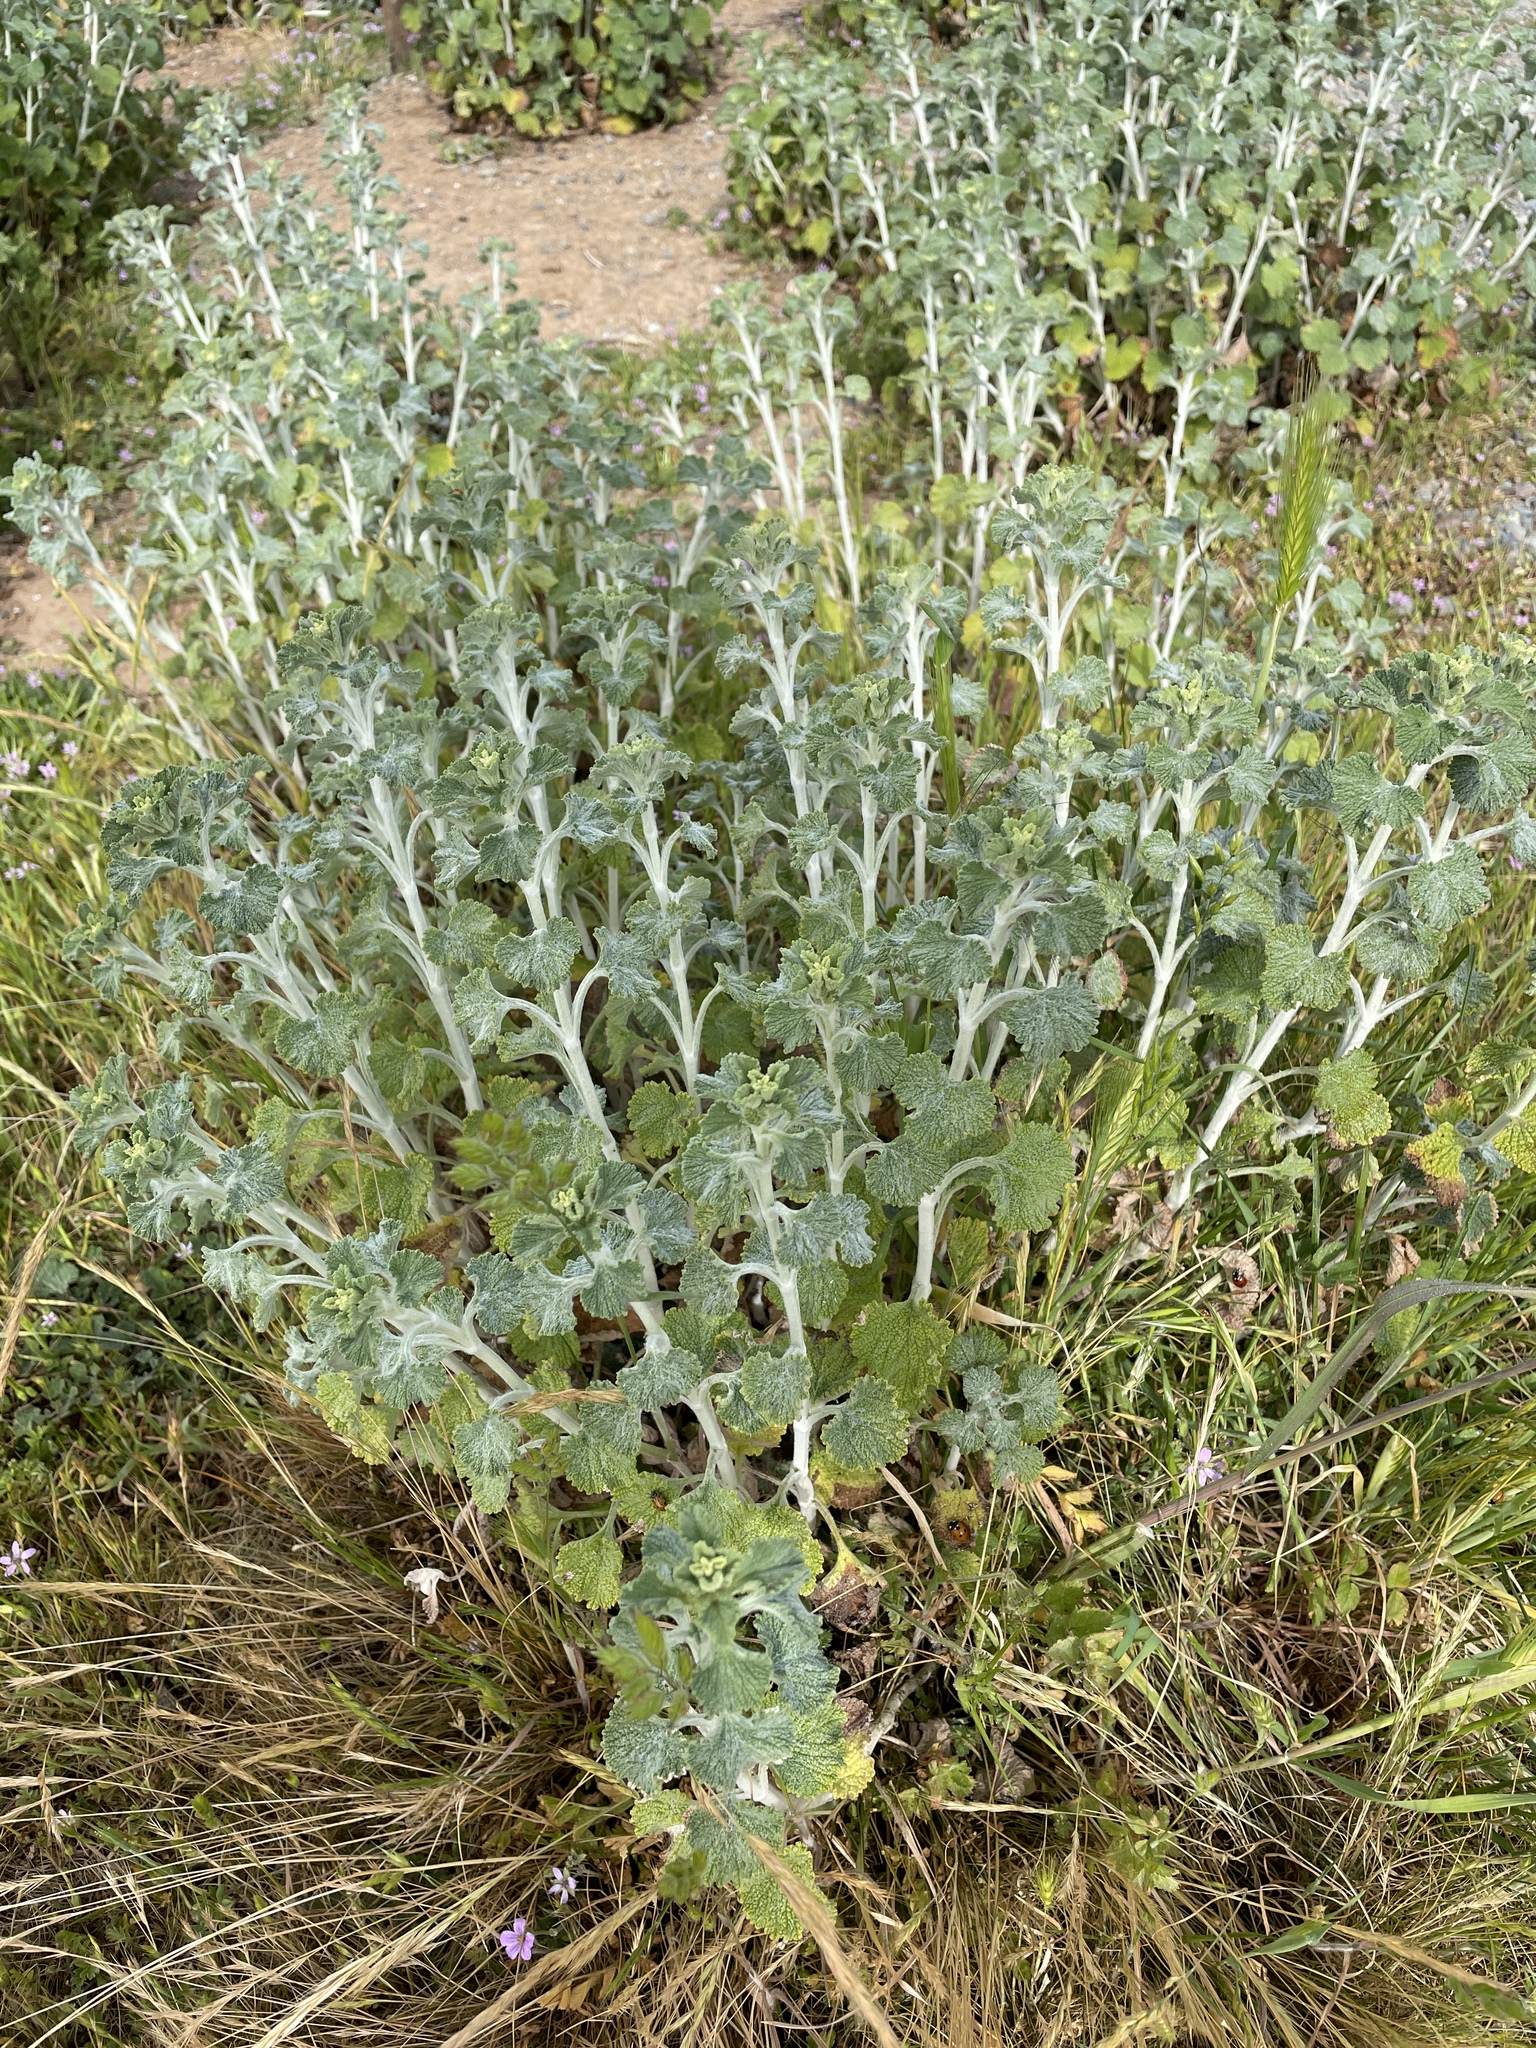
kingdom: Plantae
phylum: Tracheophyta
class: Magnoliopsida
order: Lamiales
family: Lamiaceae
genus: Marrubium
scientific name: Marrubium vulgare
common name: Horehound
